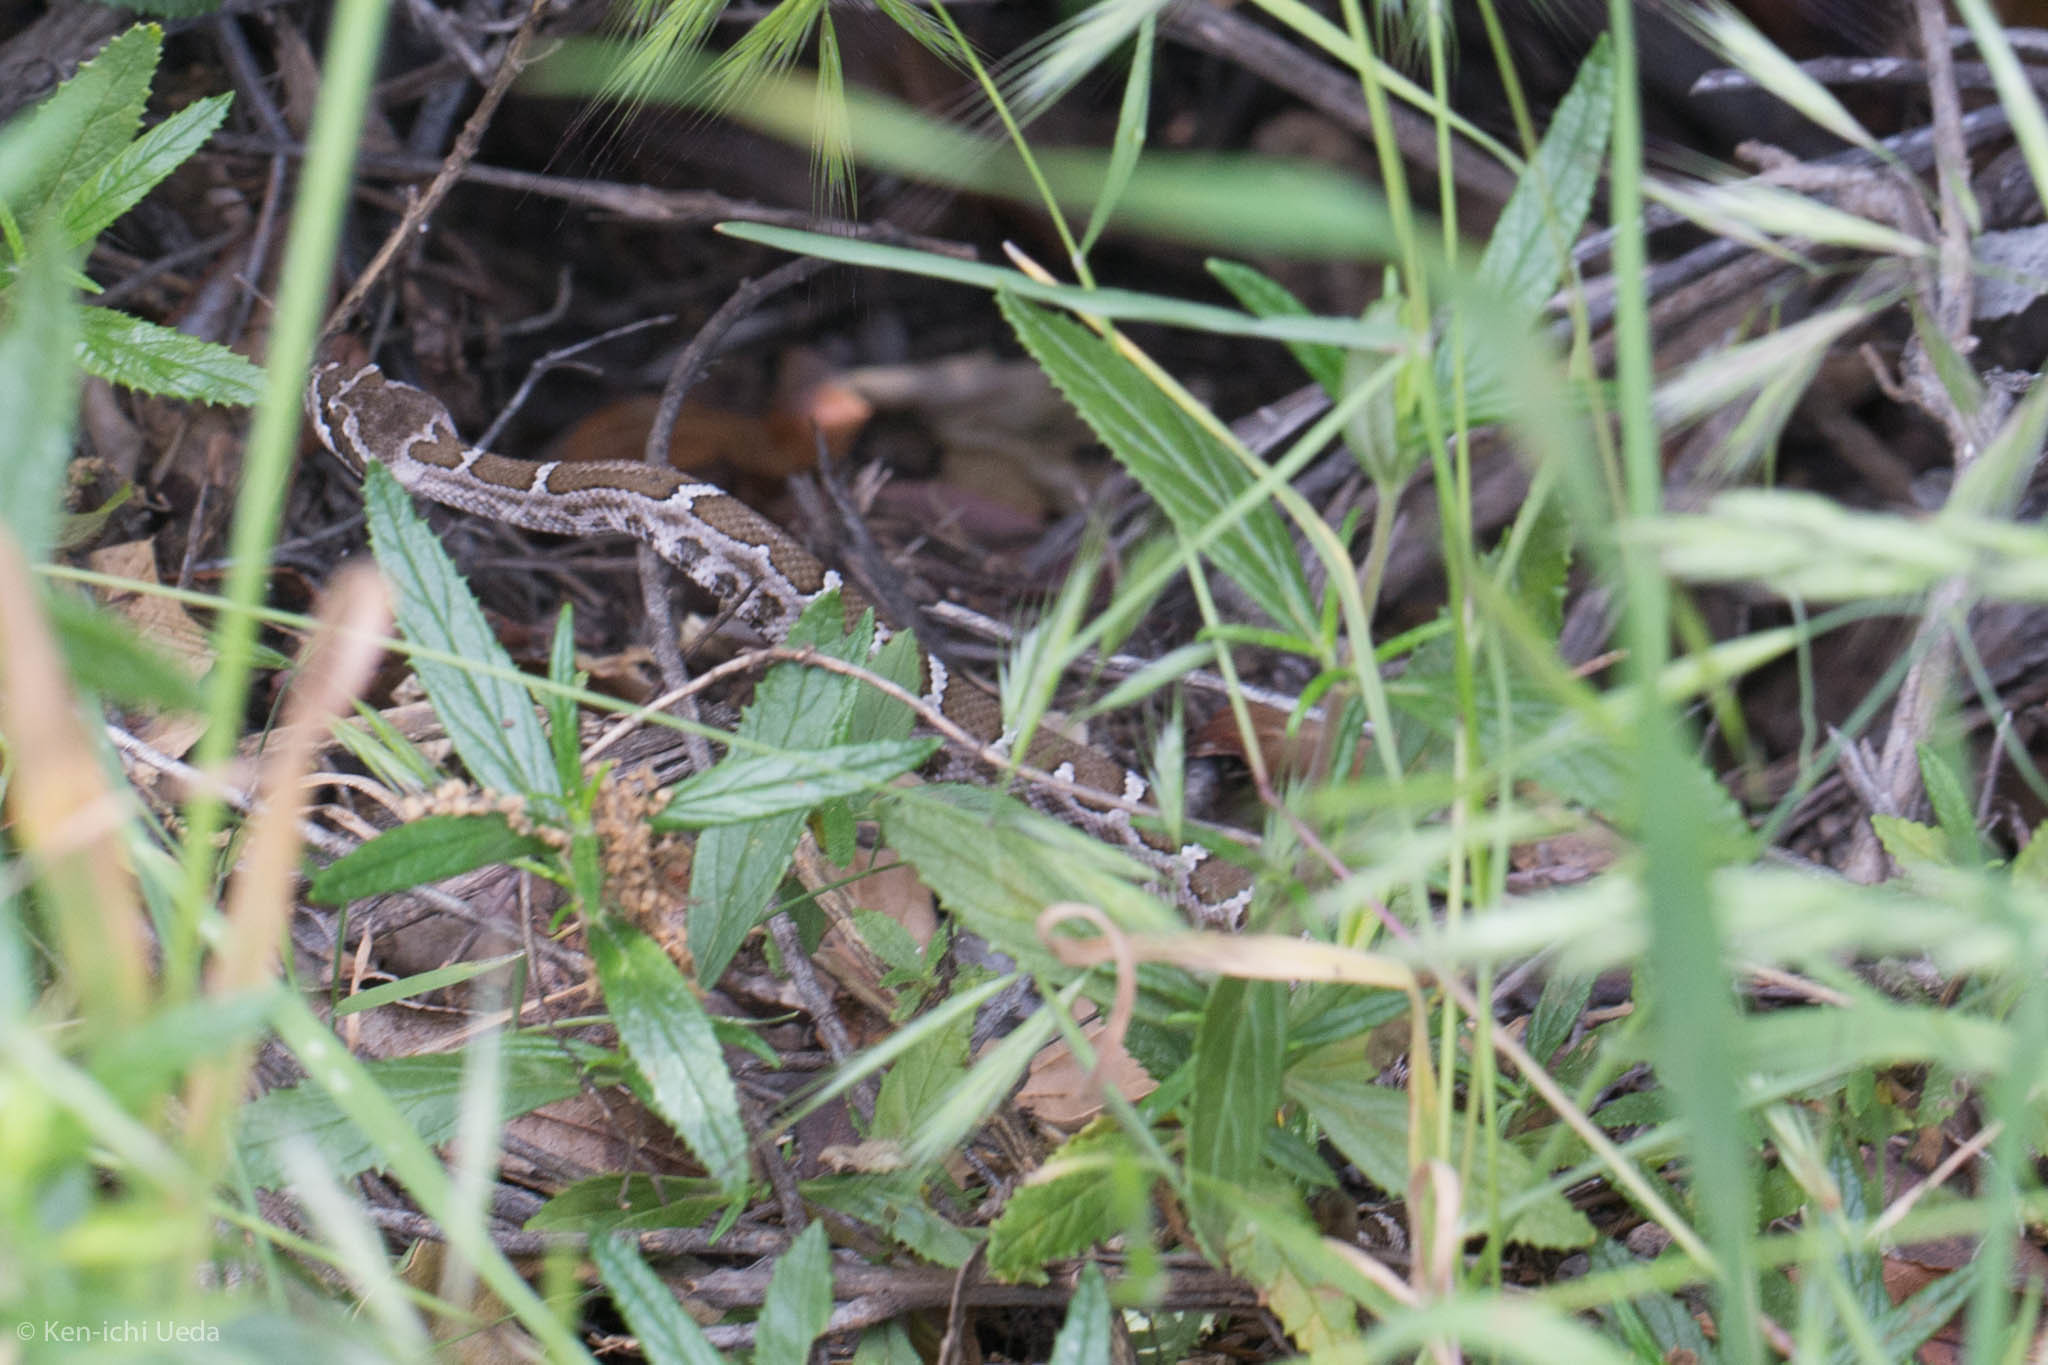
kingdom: Animalia
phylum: Chordata
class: Squamata
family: Viperidae
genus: Crotalus
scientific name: Crotalus oreganus
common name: Abyssus
